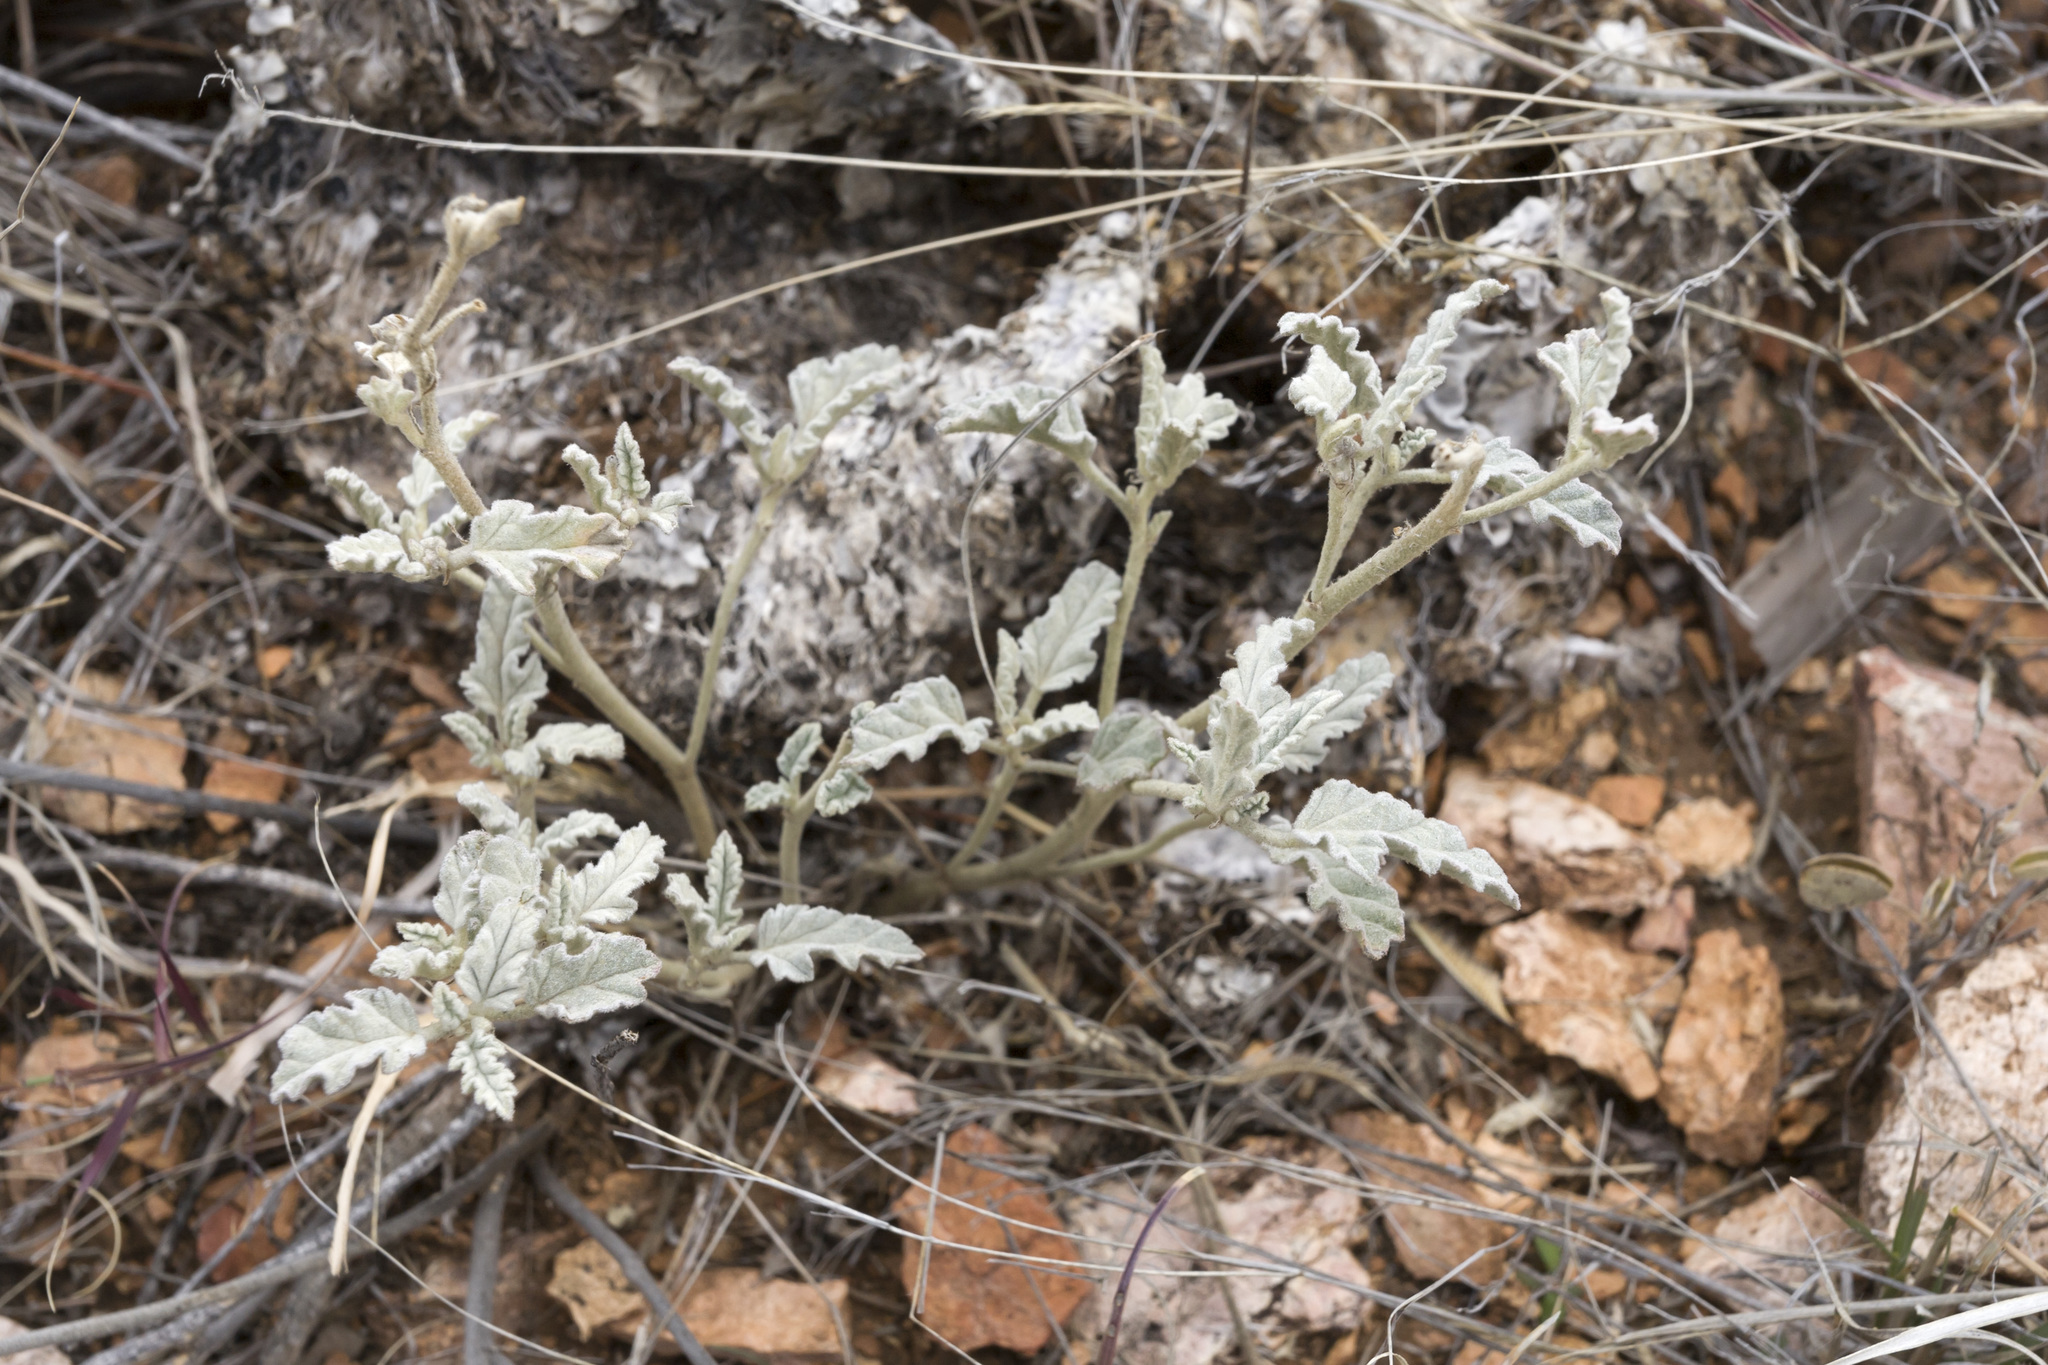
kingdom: Plantae
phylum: Tracheophyta
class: Magnoliopsida
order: Malvales
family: Malvaceae
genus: Sphaeralcea
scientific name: Sphaeralcea hastulata
